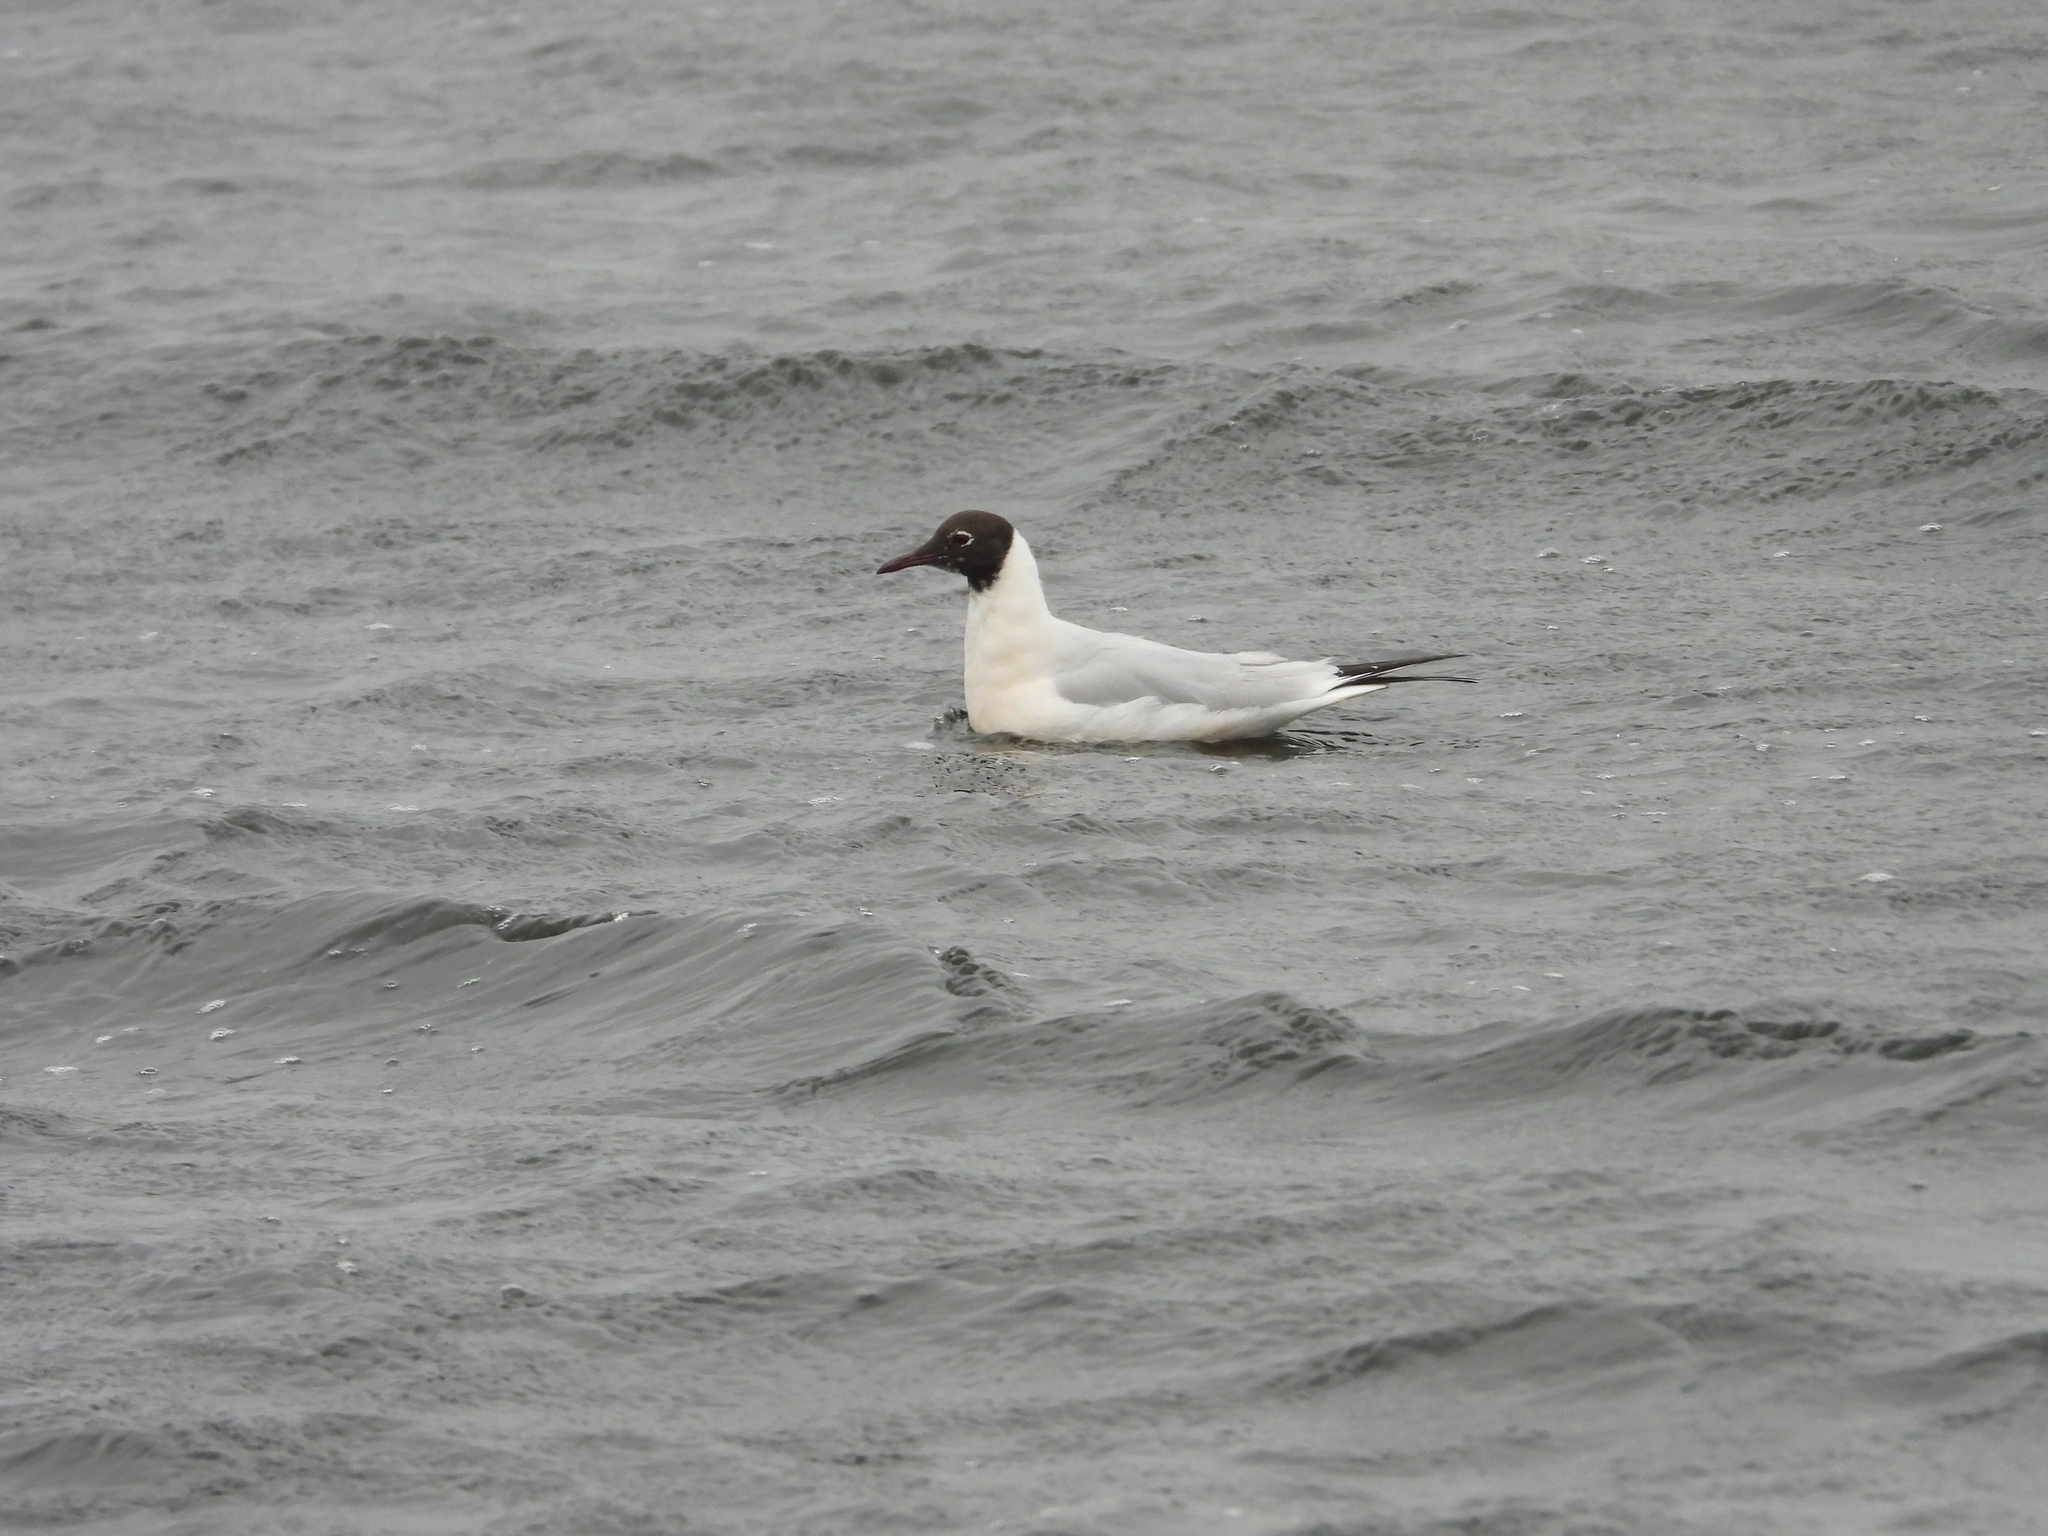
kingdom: Animalia
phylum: Chordata
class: Aves
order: Charadriiformes
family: Laridae
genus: Chroicocephalus
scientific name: Chroicocephalus ridibundus
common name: Black-headed gull
